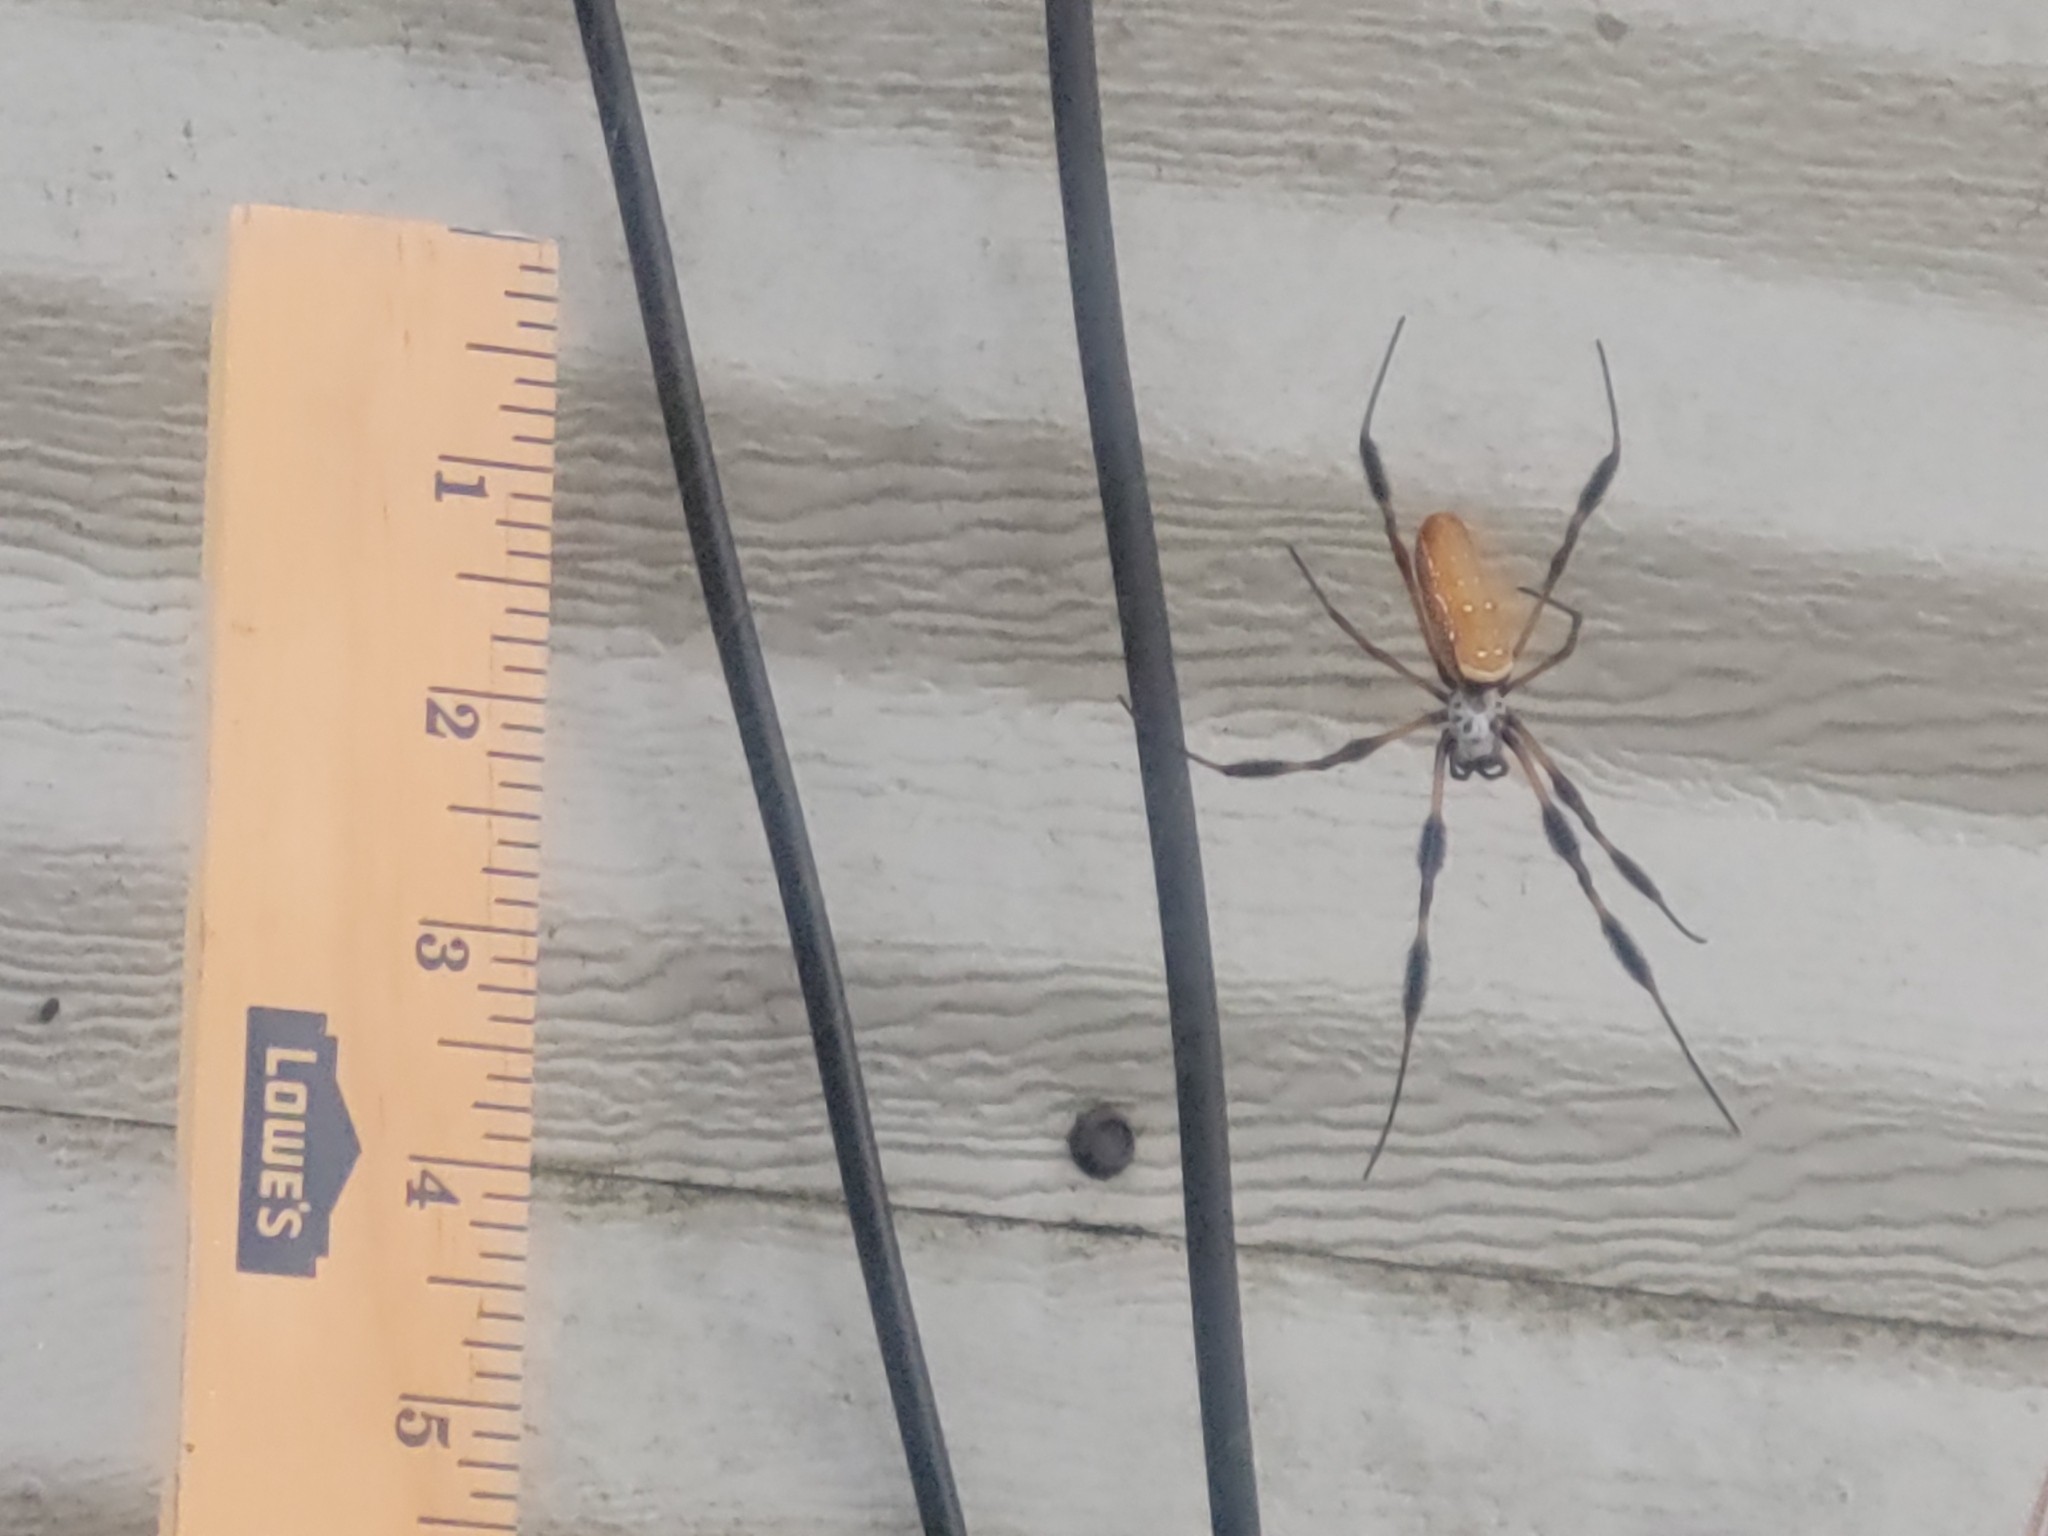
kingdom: Animalia
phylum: Arthropoda
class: Arachnida
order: Araneae
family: Araneidae
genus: Trichonephila
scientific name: Trichonephila clavipes
